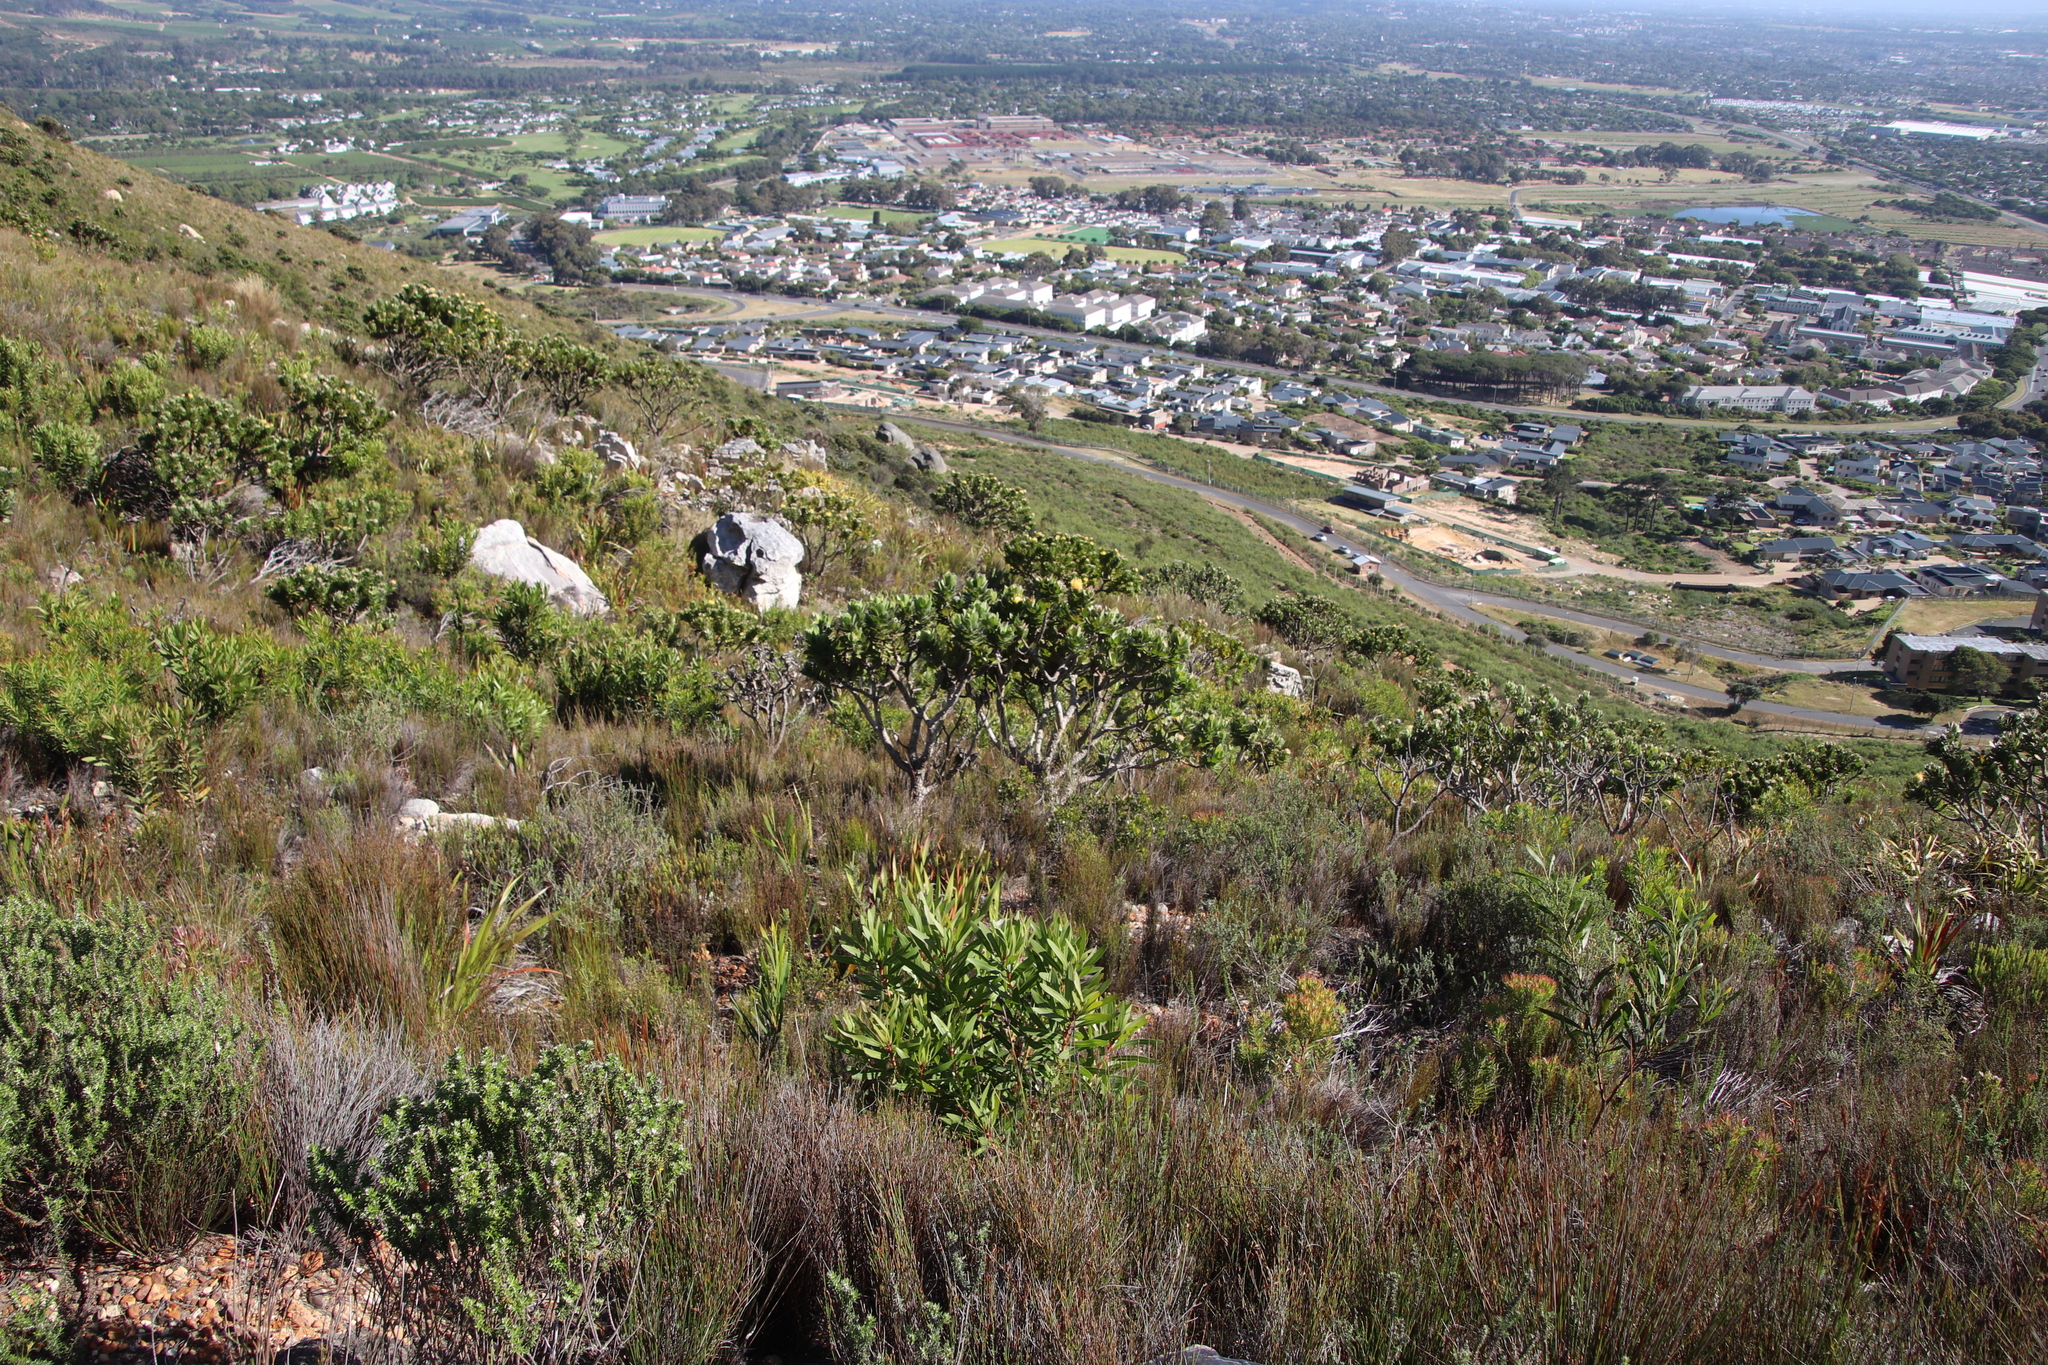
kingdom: Plantae
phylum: Tracheophyta
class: Magnoliopsida
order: Proteales
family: Proteaceae
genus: Leucospermum
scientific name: Leucospermum conocarpodendron
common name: Tree pincushion
